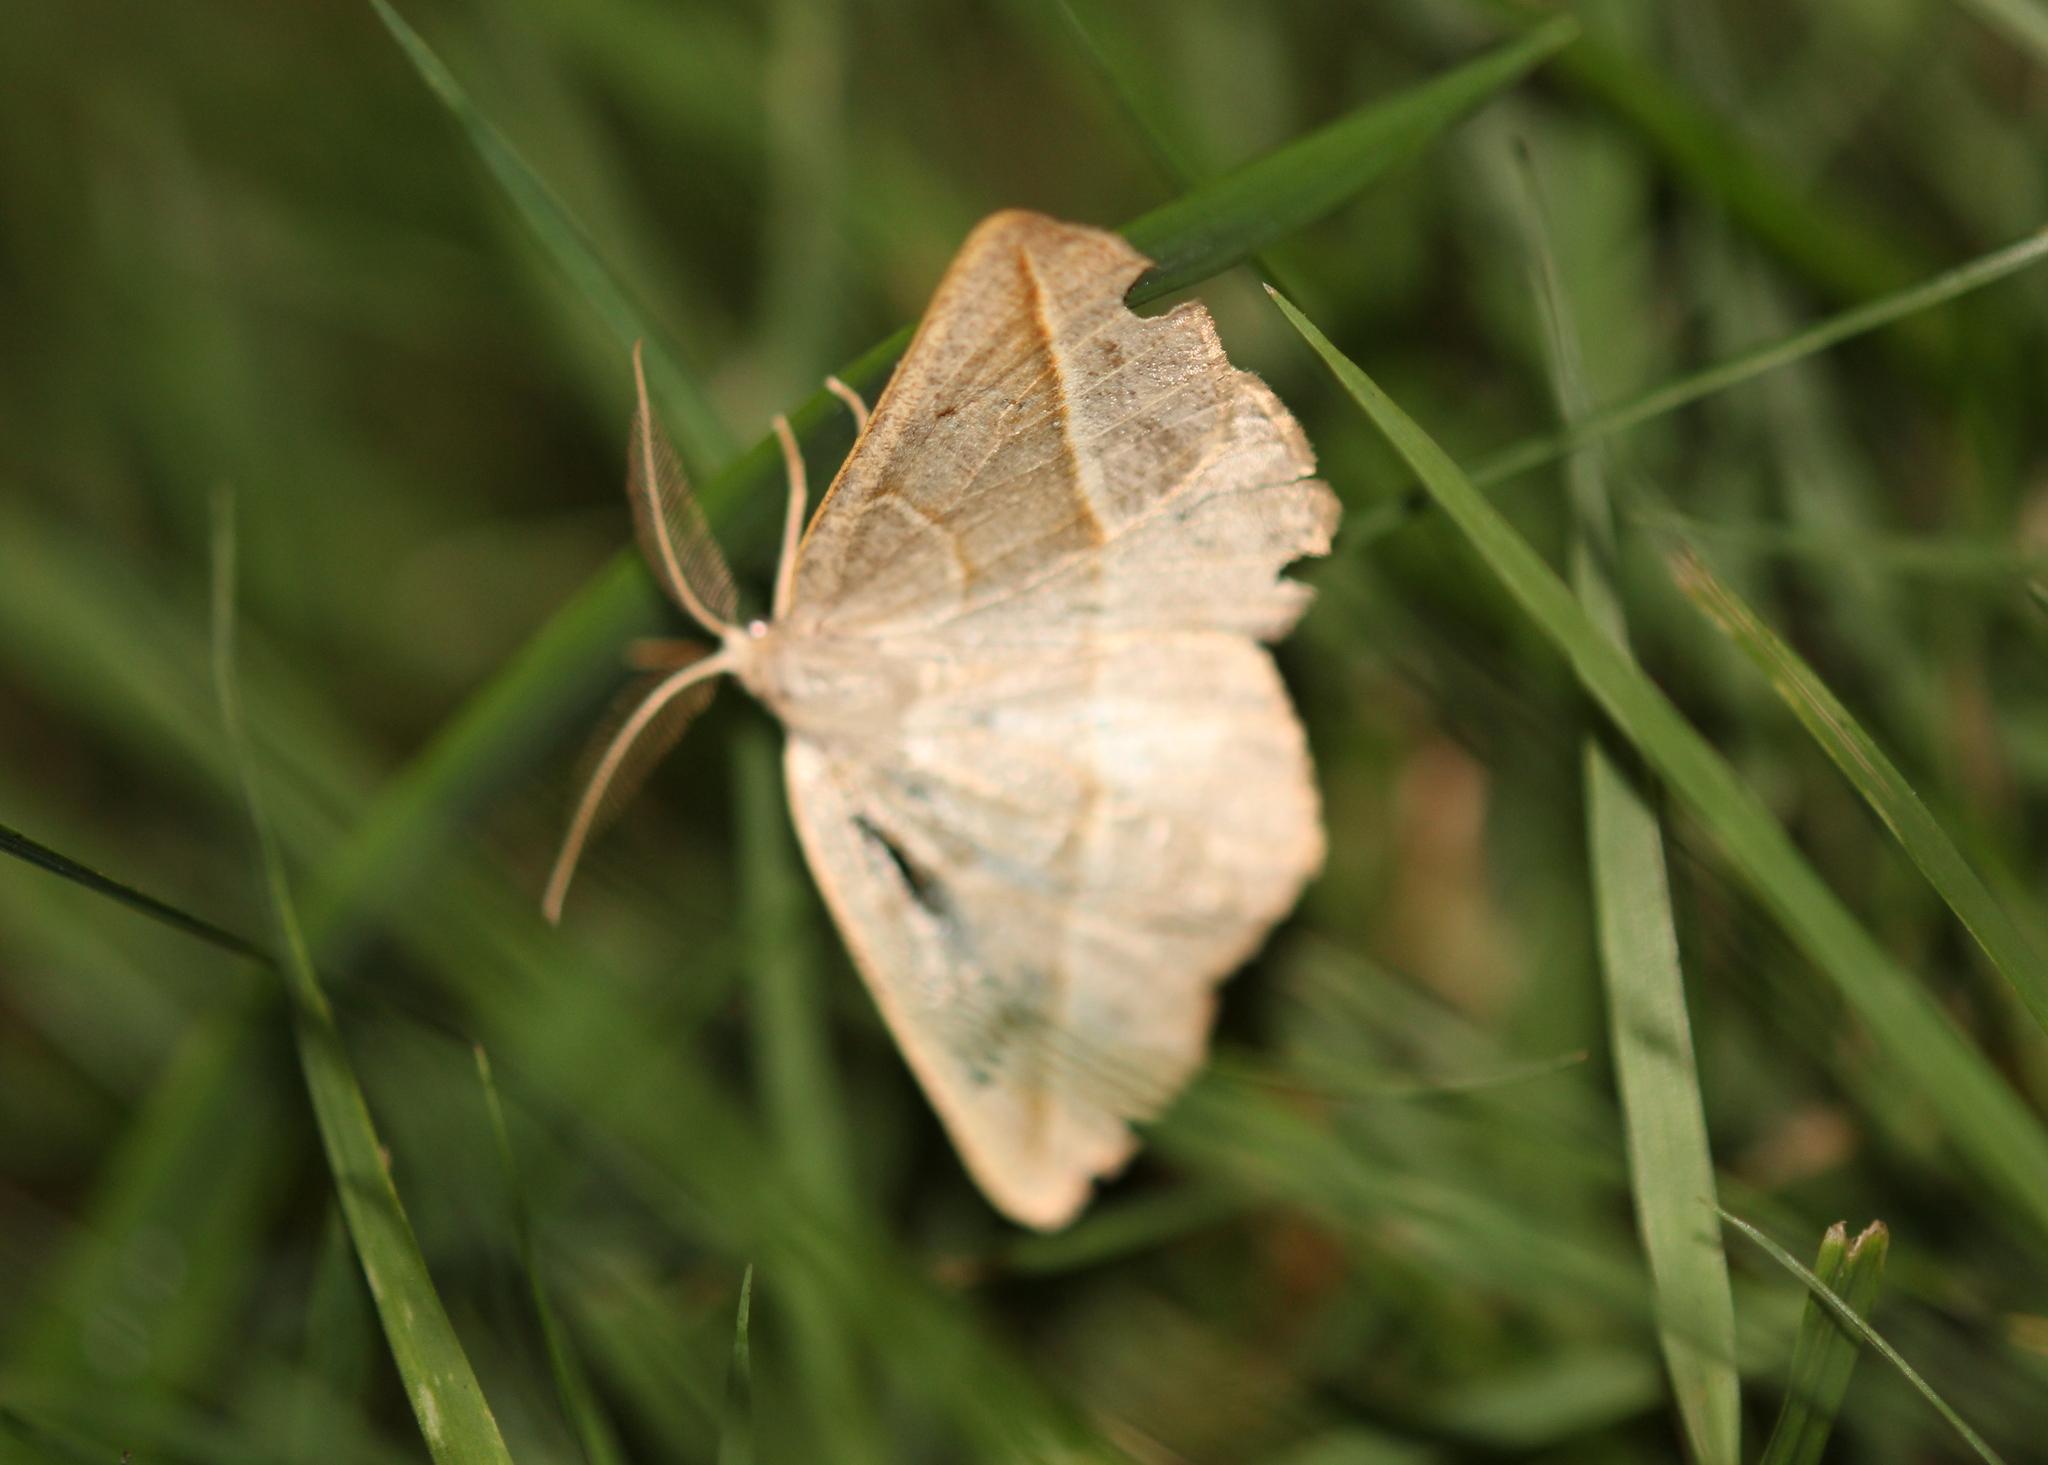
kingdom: Animalia
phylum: Arthropoda
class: Insecta
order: Lepidoptera
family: Geometridae
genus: Eusarca
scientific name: Eusarca confusaria
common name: Confused eusarca
